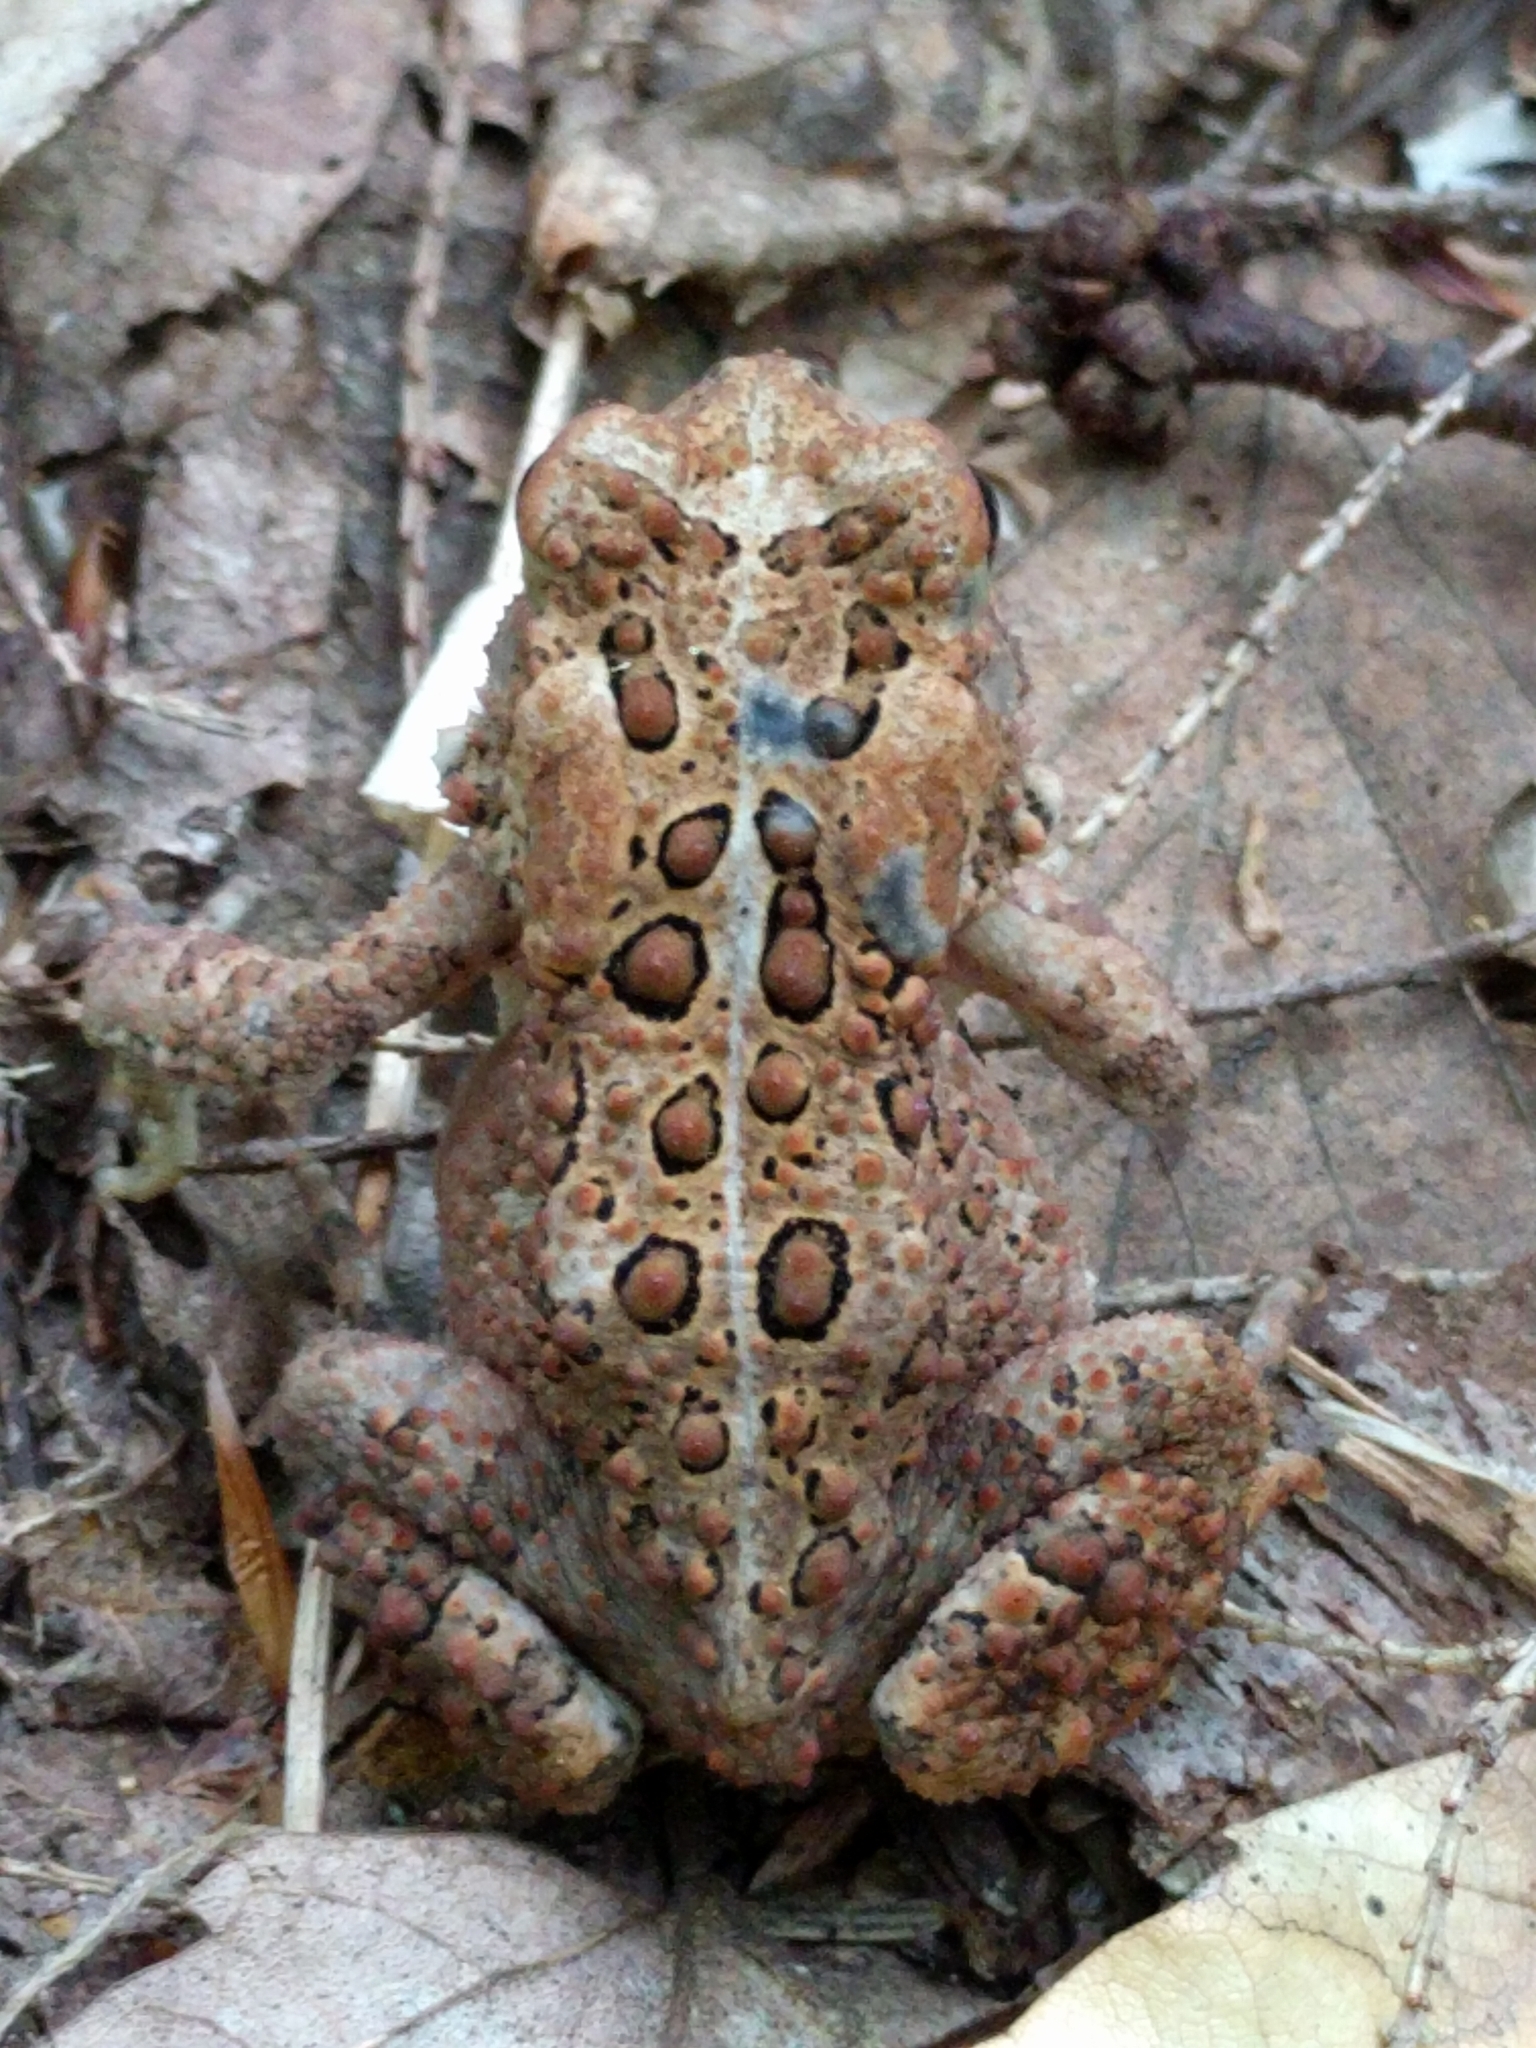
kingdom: Animalia
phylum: Chordata
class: Amphibia
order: Anura
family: Bufonidae
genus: Anaxyrus
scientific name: Anaxyrus americanus
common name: American toad
